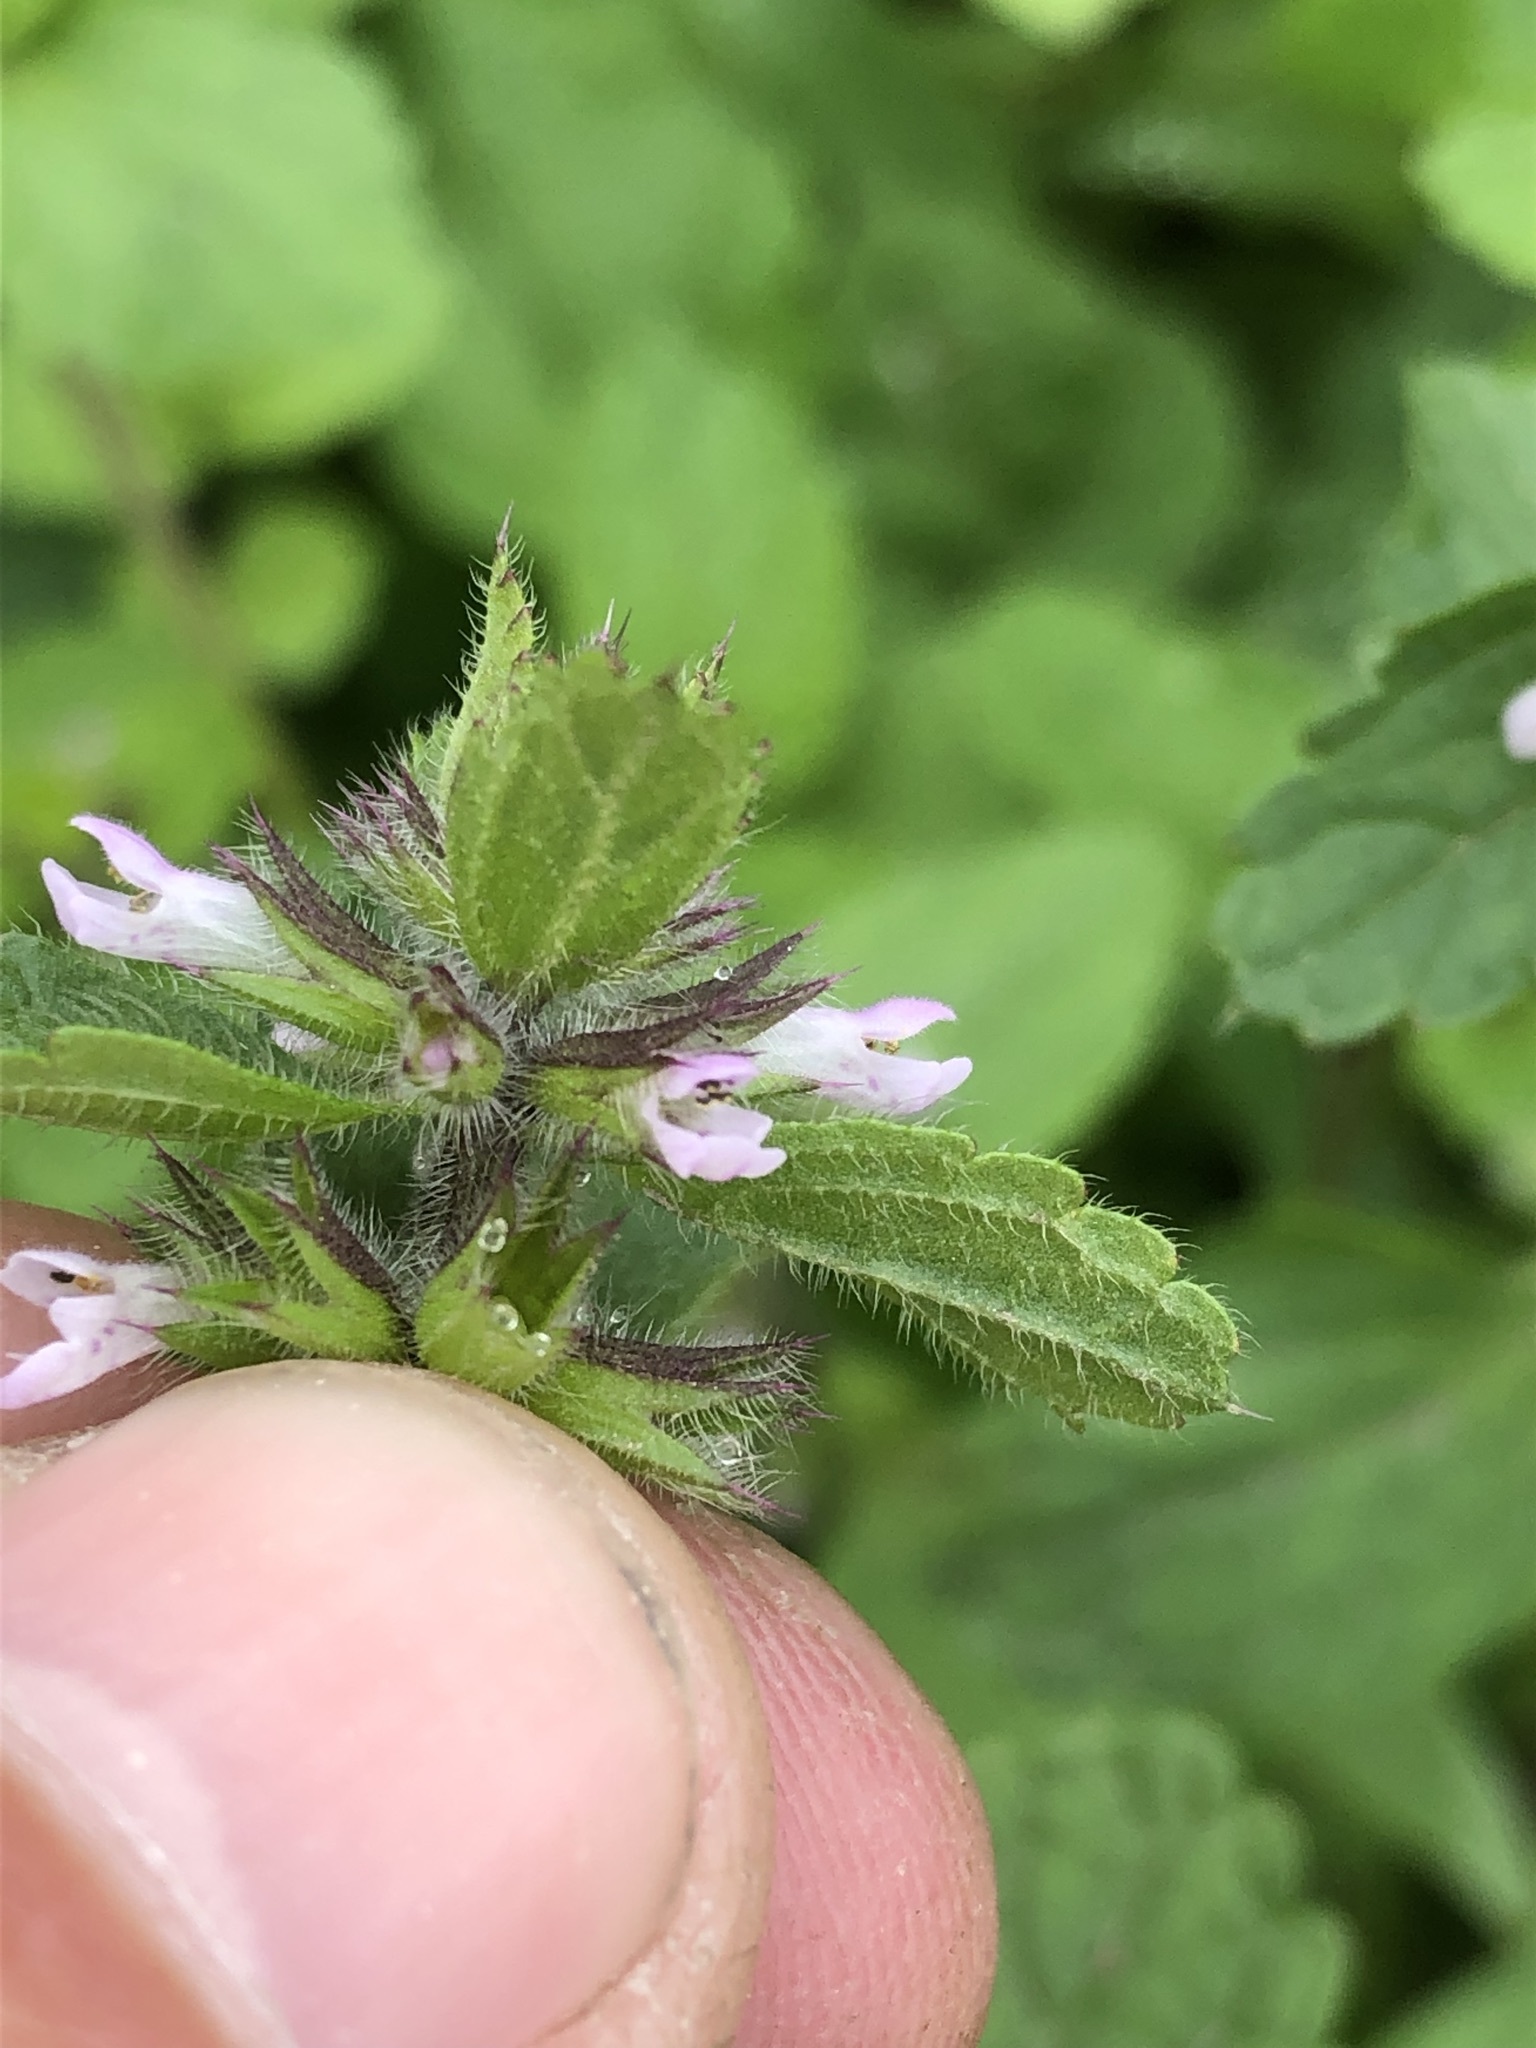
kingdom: Plantae
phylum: Tracheophyta
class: Magnoliopsida
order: Lamiales
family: Lamiaceae
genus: Stachys
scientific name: Stachys arvensis
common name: Field woundwort
